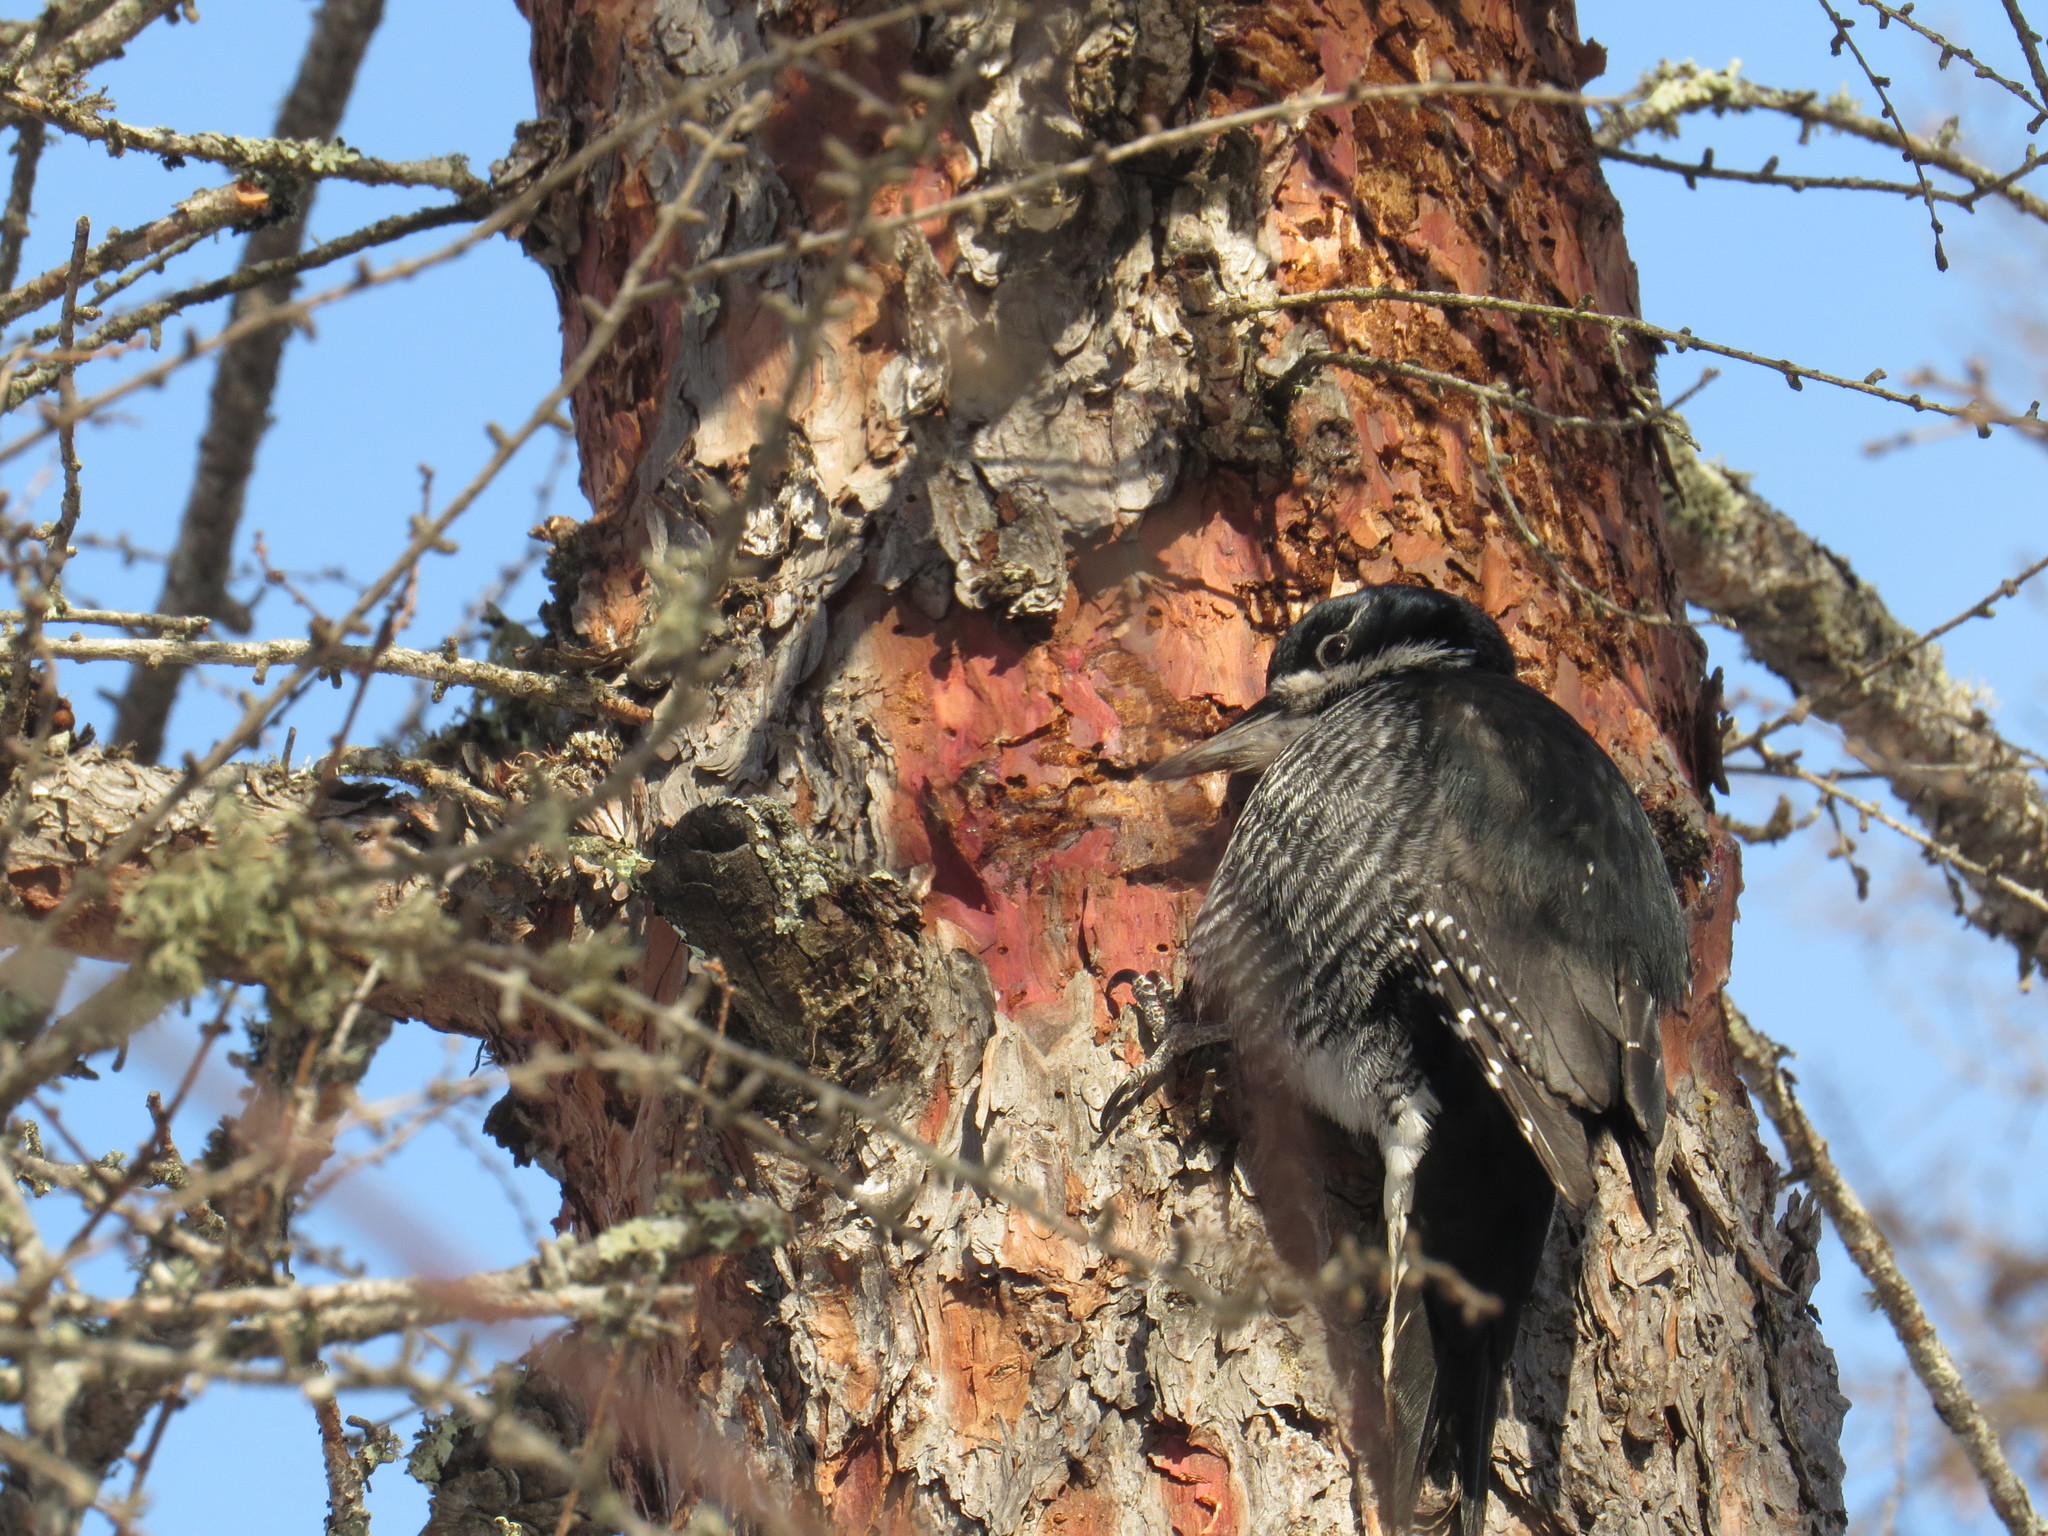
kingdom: Animalia
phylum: Chordata
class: Aves
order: Piciformes
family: Picidae
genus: Picoides
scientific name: Picoides arcticus
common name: Black-backed woodpecker
